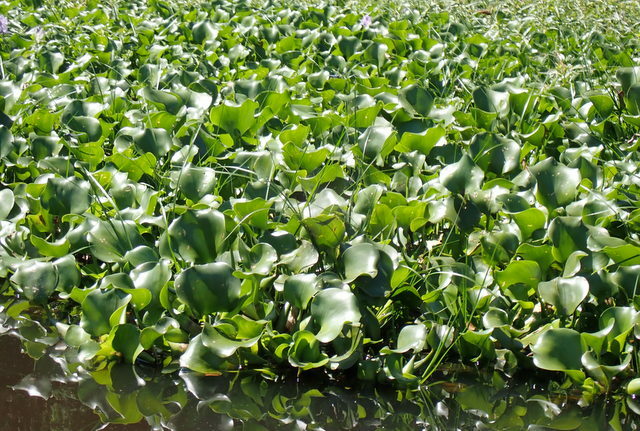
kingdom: Plantae
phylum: Tracheophyta
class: Liliopsida
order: Commelinales
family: Pontederiaceae
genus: Pontederia
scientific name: Pontederia crassipes
